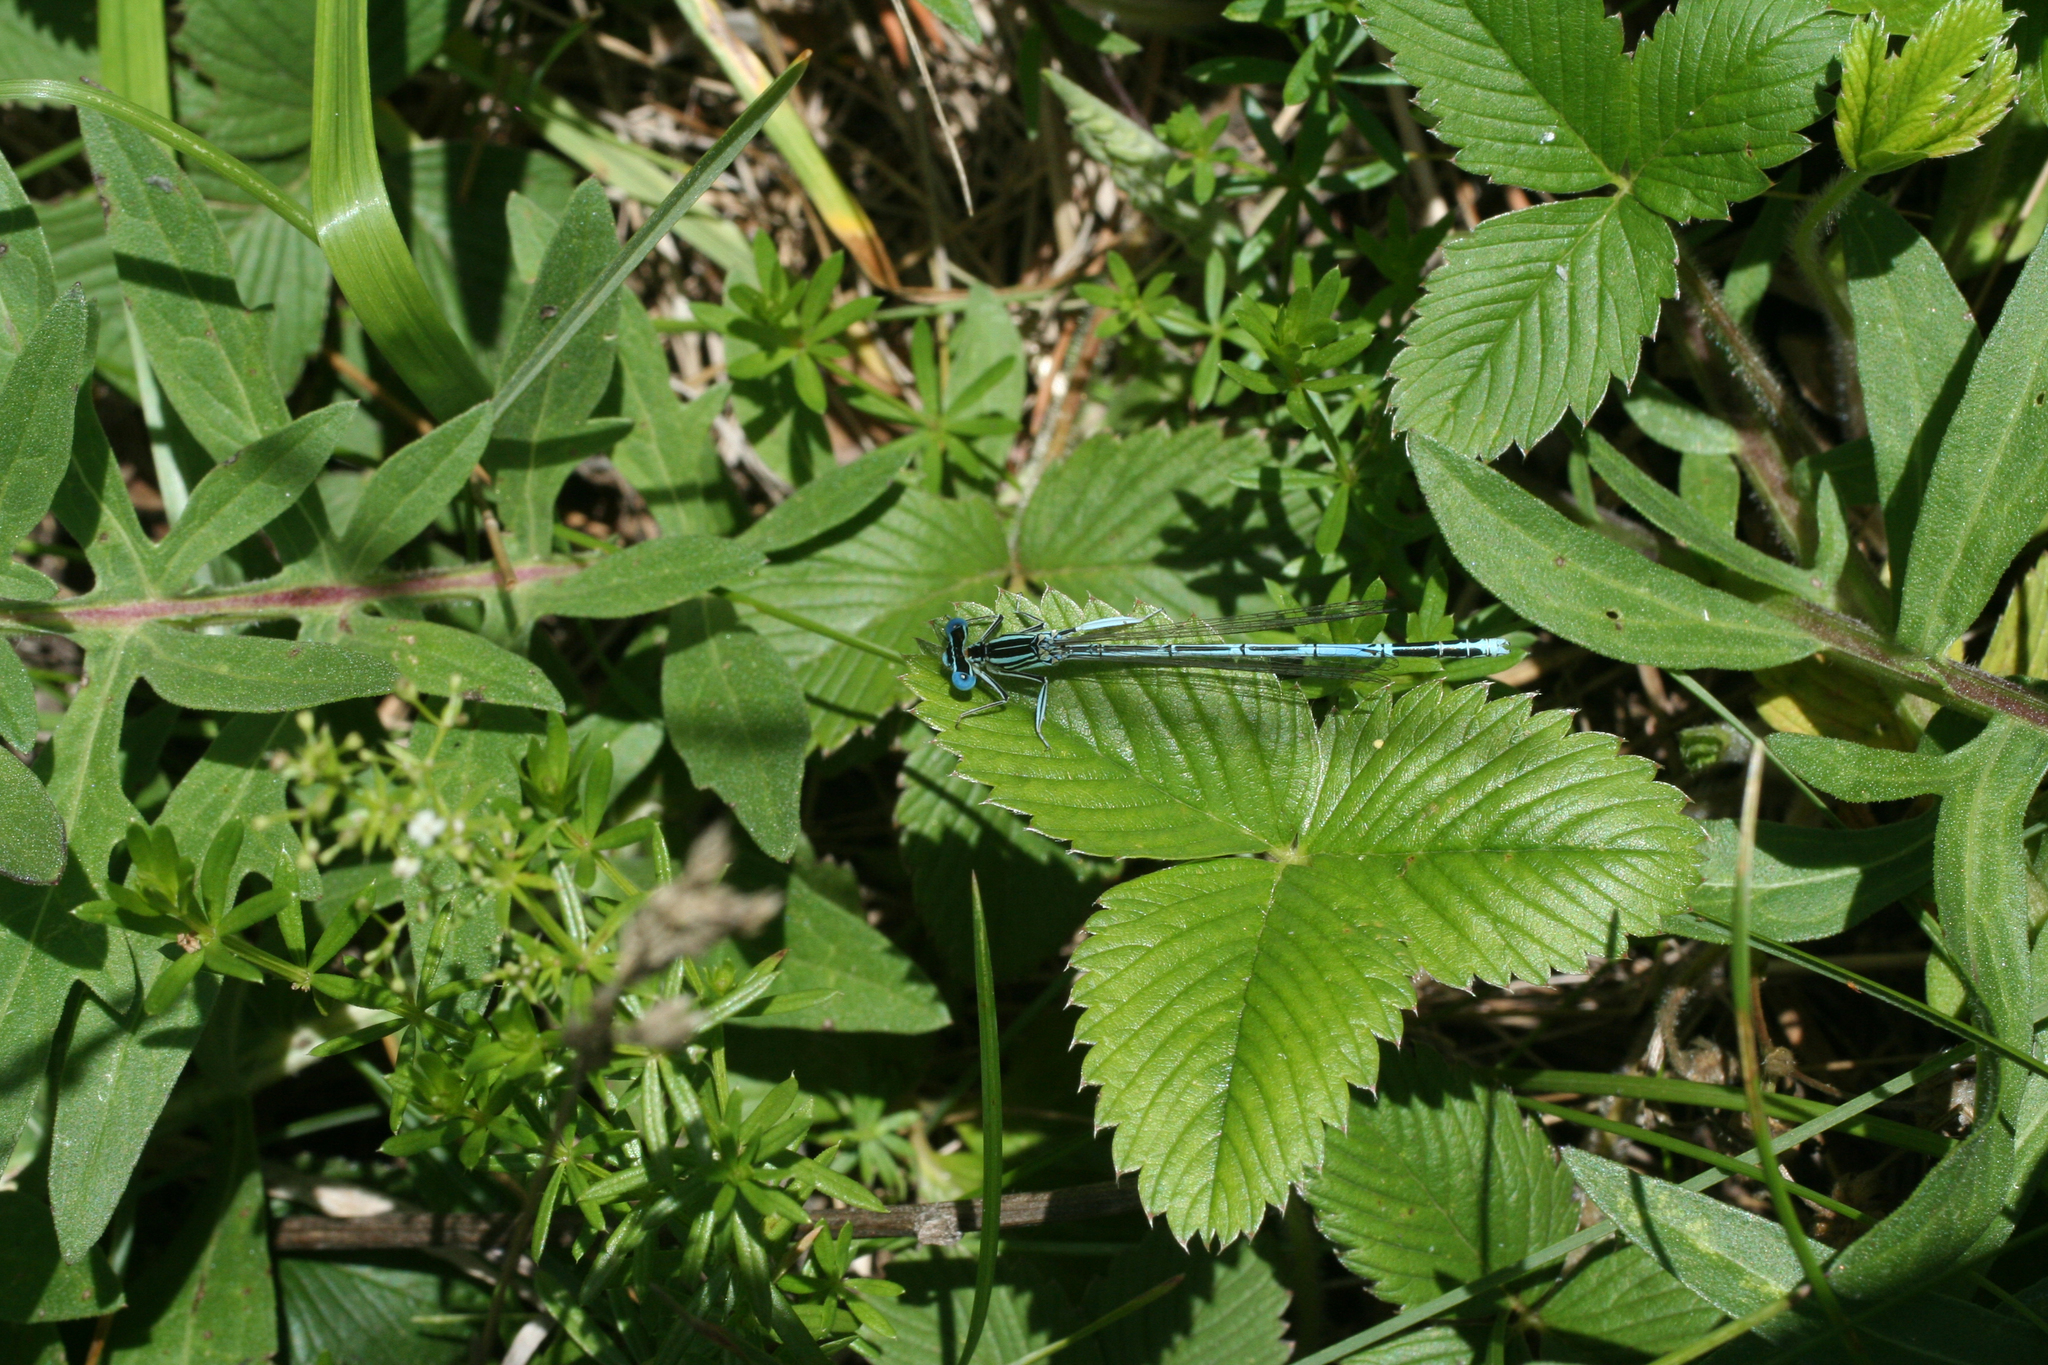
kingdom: Plantae
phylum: Tracheophyta
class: Magnoliopsida
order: Rosales
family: Rosaceae
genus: Fragaria
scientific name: Fragaria viridis
